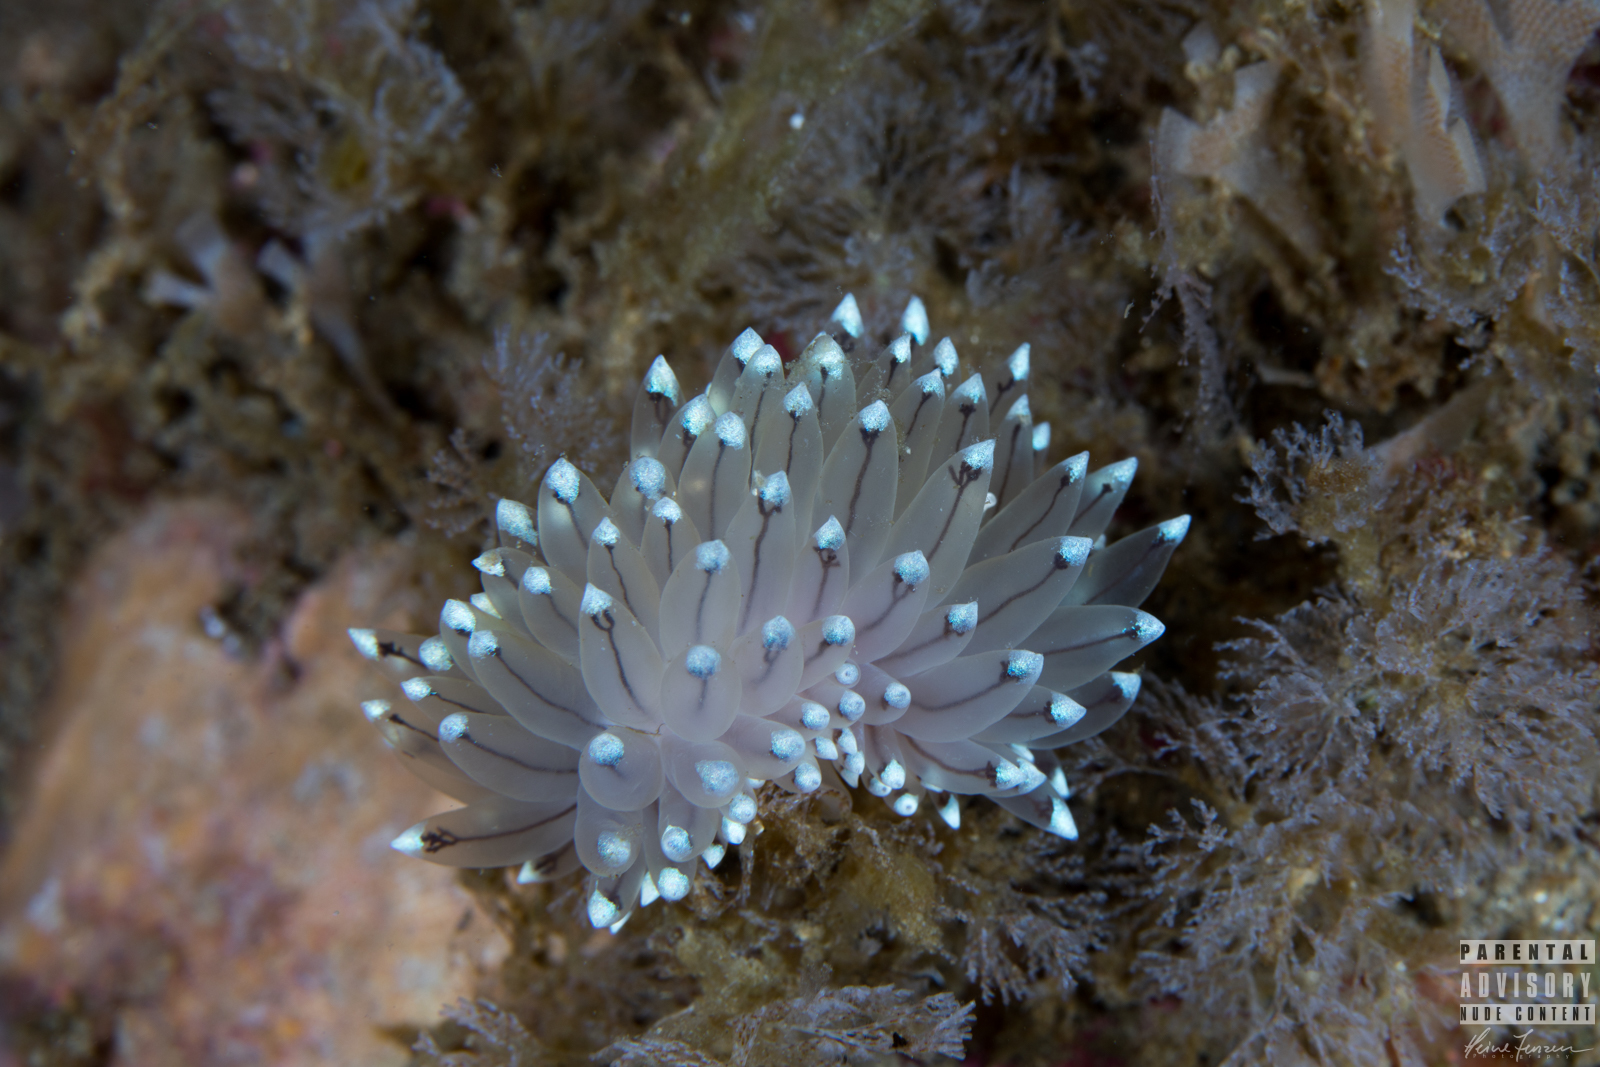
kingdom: Animalia
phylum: Mollusca
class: Gastropoda
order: Nudibranchia
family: Janolidae
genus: Antiopella
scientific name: Antiopella cristata
